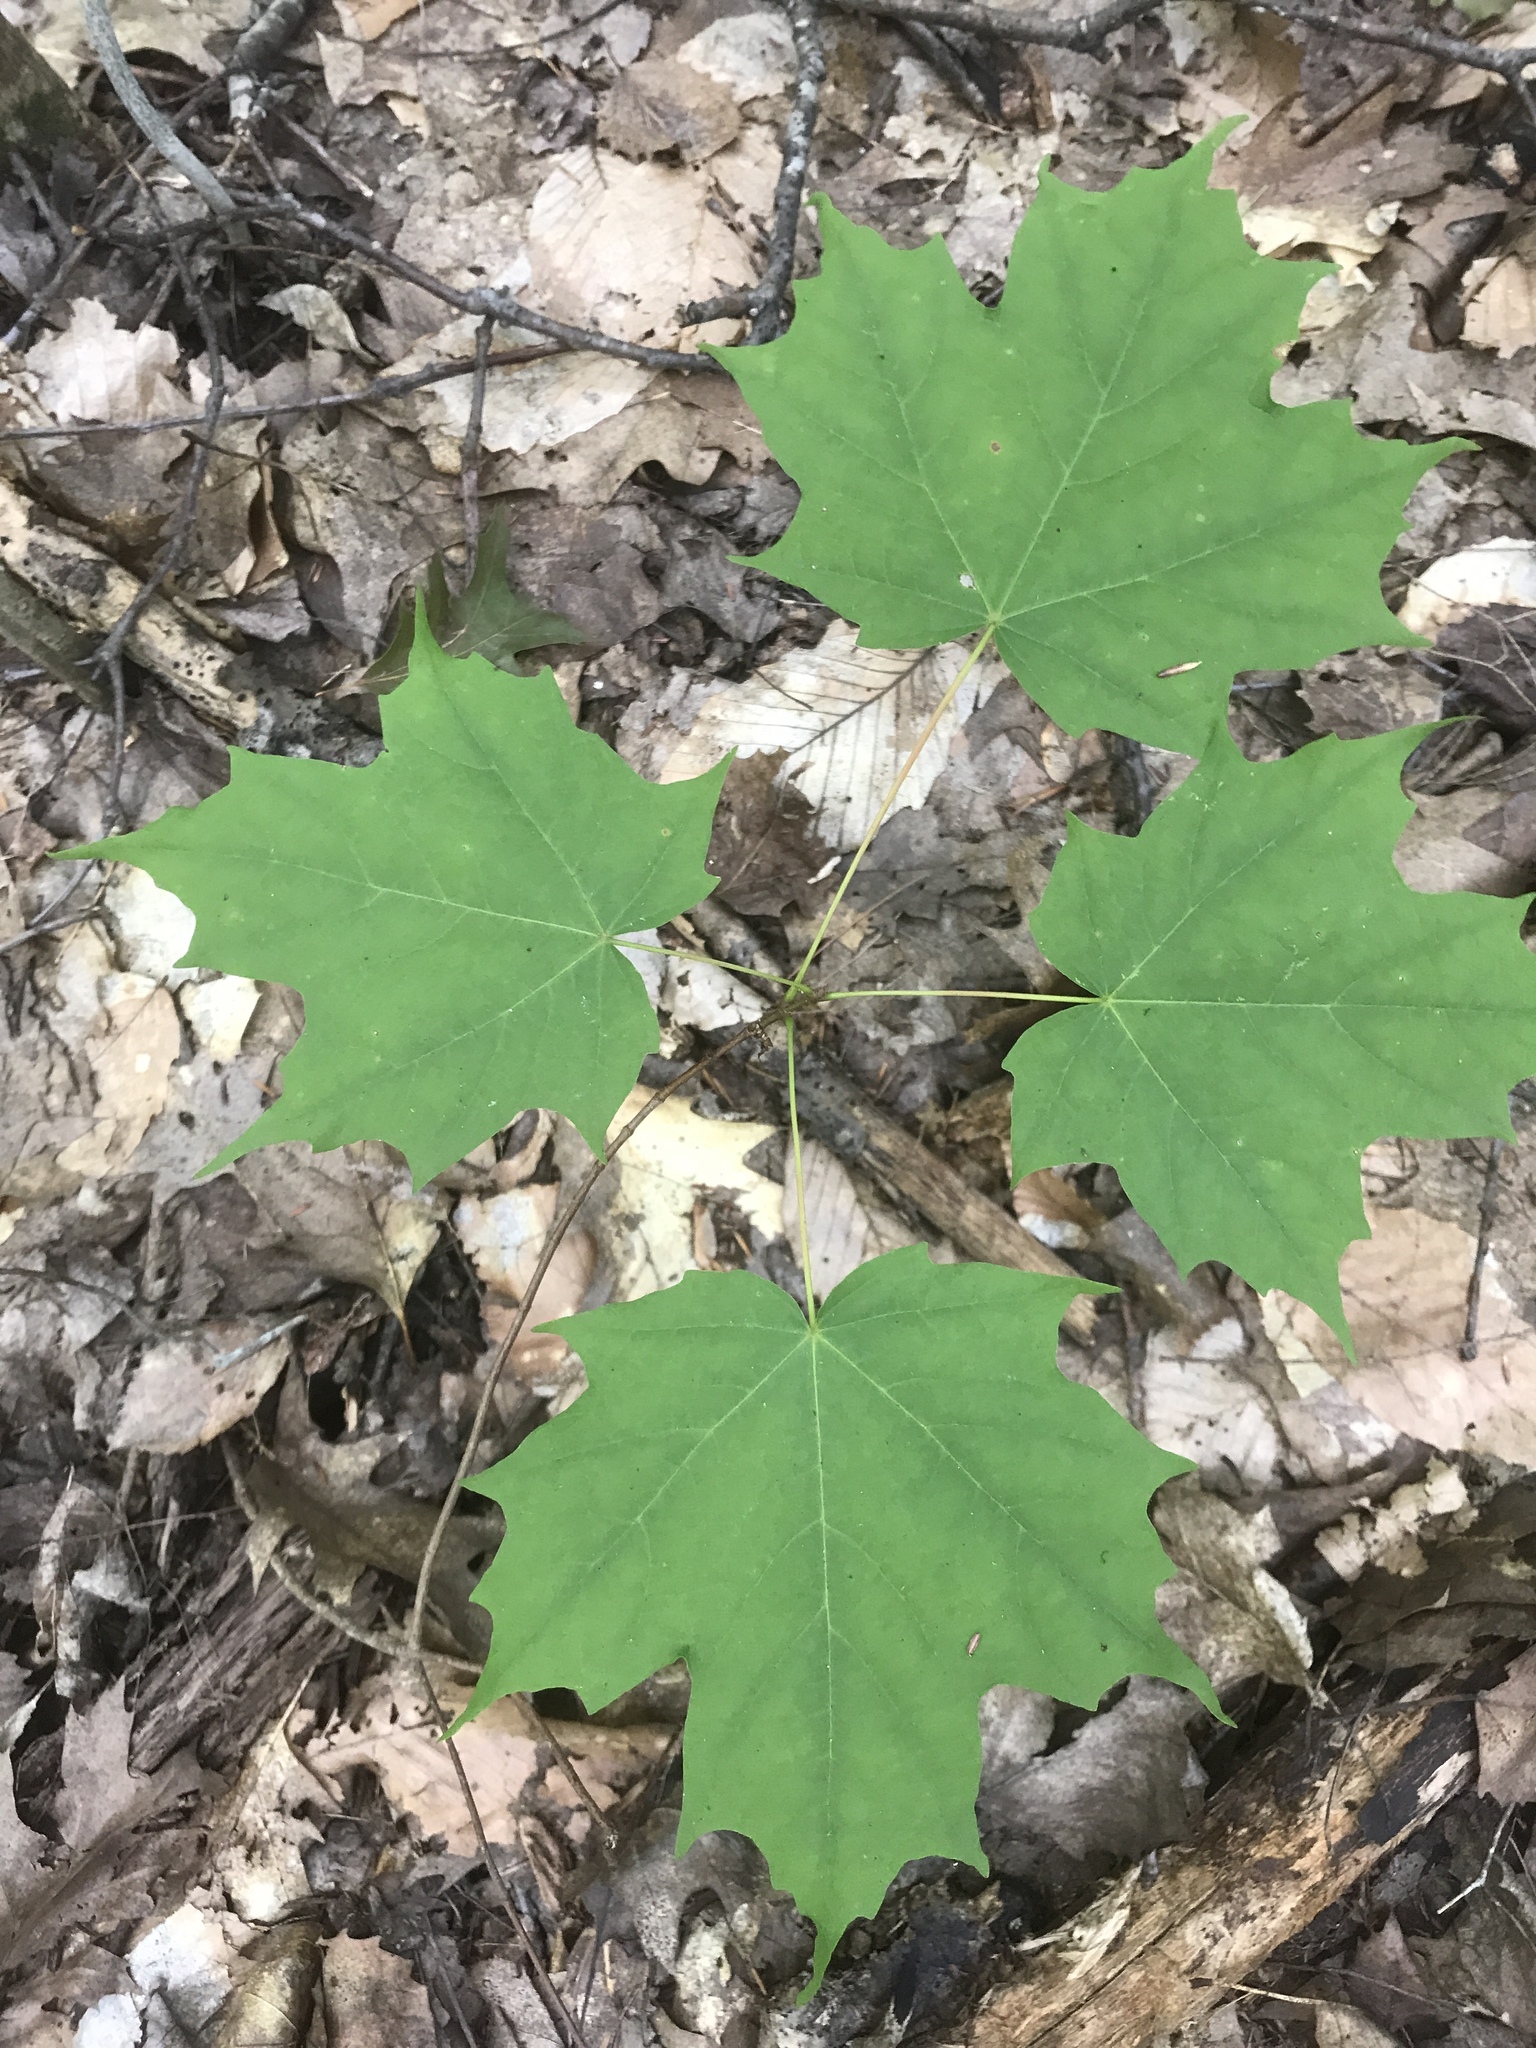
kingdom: Plantae
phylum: Tracheophyta
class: Magnoliopsida
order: Sapindales
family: Sapindaceae
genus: Acer
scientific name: Acer saccharum
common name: Sugar maple
